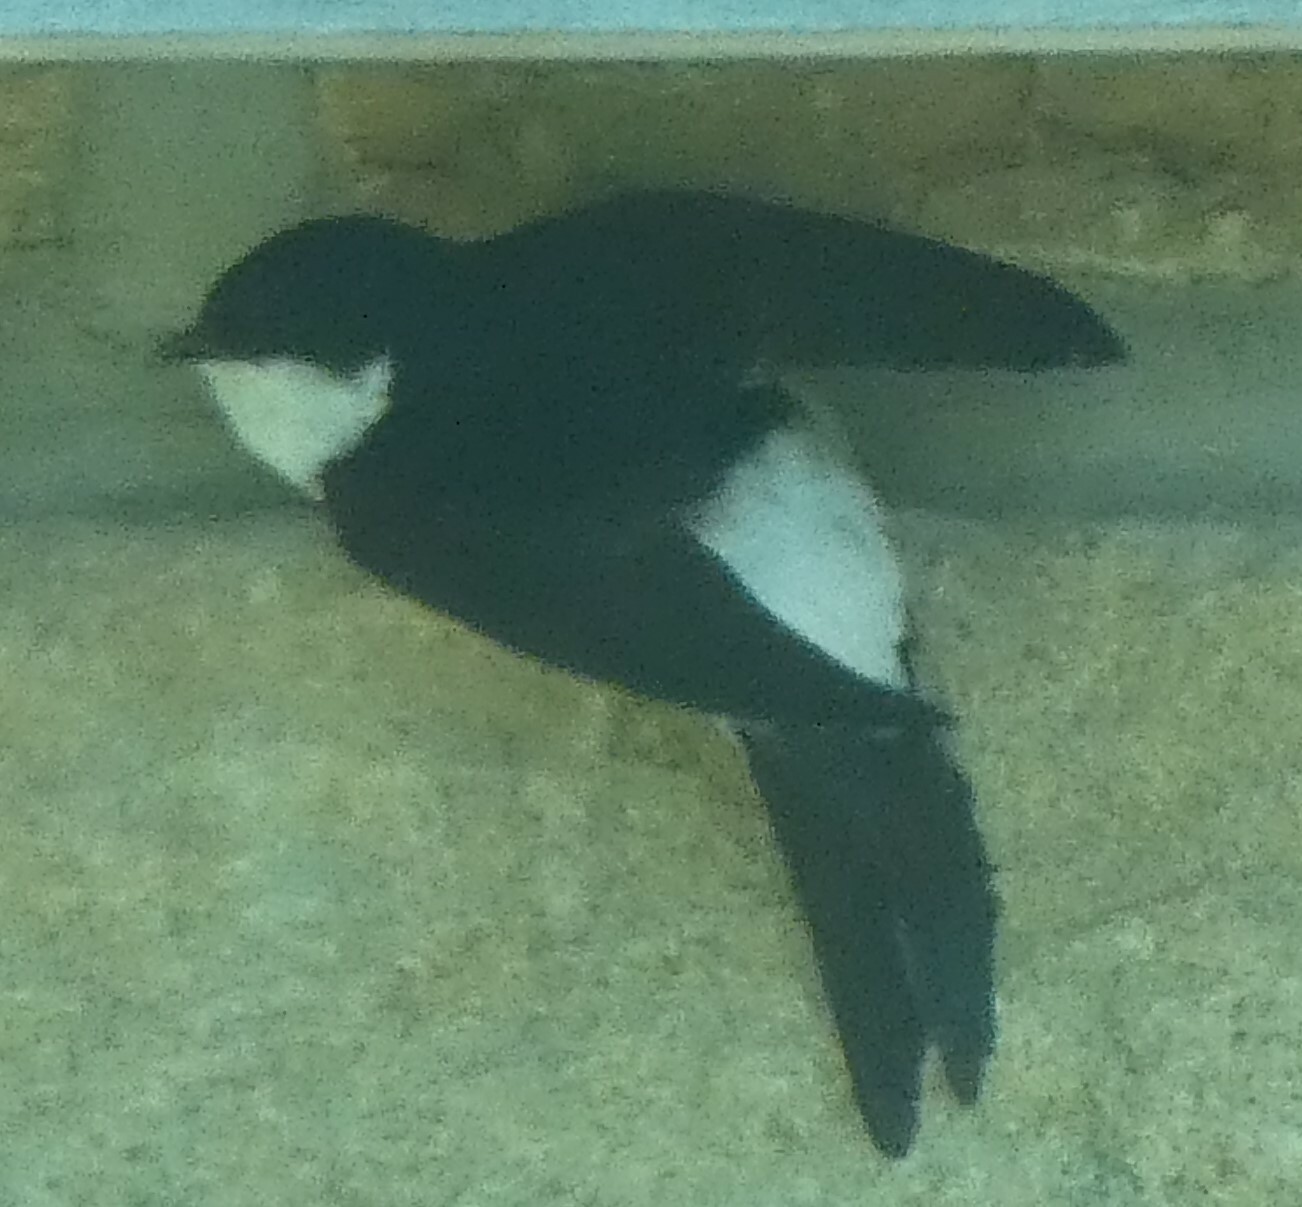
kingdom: Animalia
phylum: Chordata
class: Aves
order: Passeriformes
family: Hirundinidae
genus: Delichon
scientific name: Delichon urbicum
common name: Common house martin
